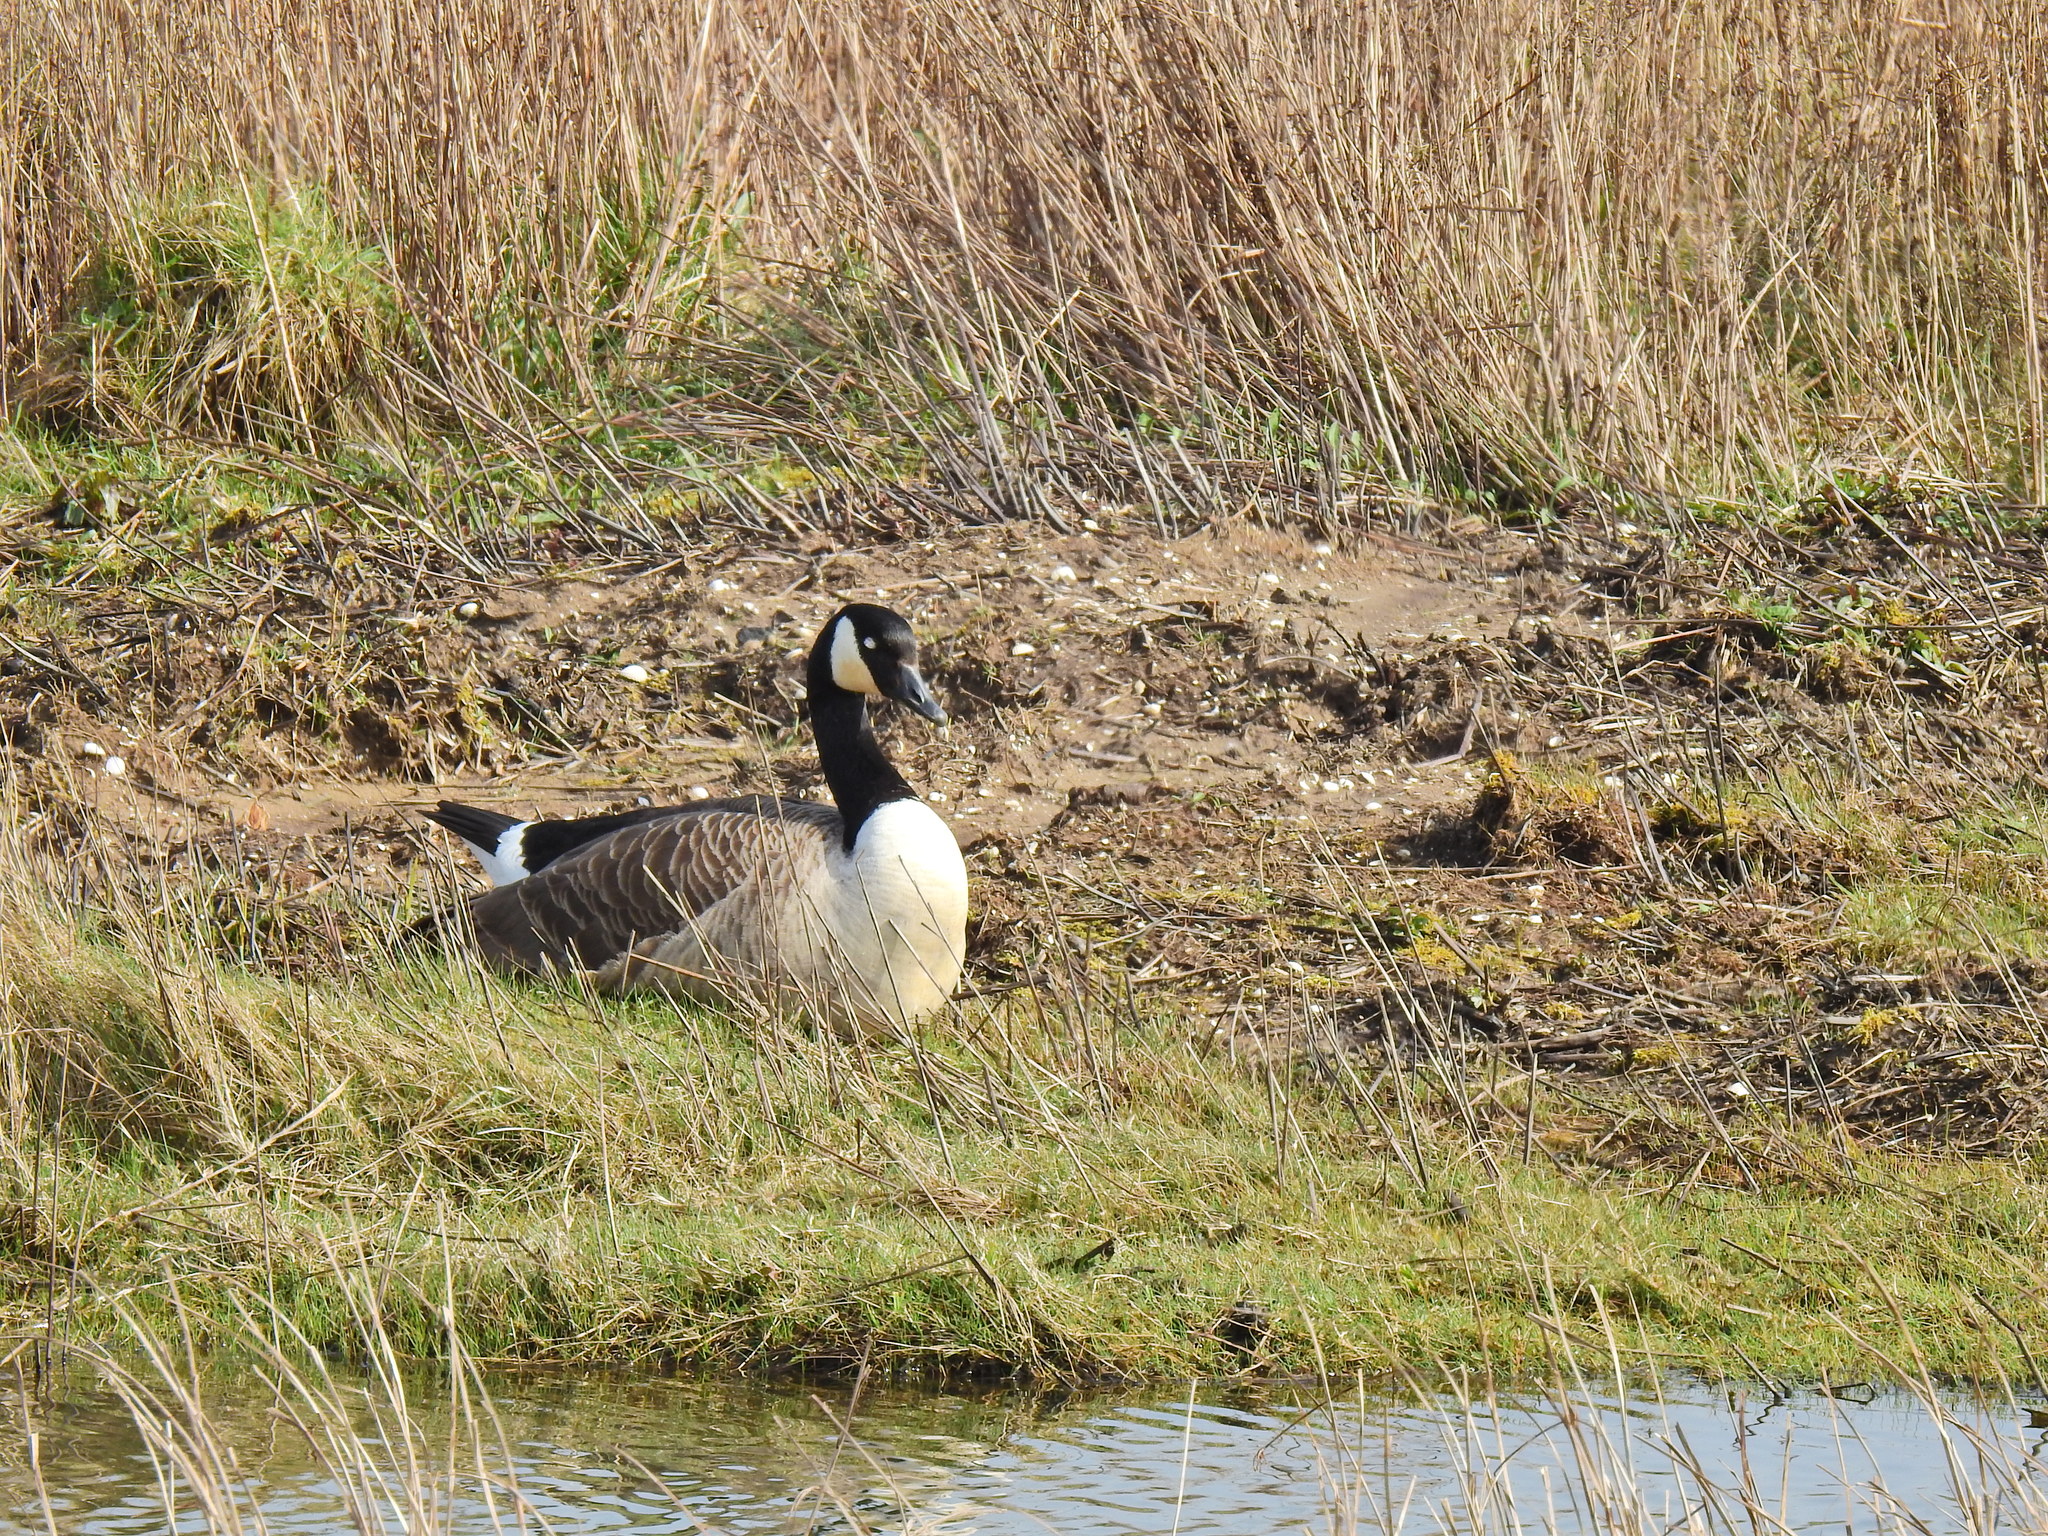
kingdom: Animalia
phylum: Chordata
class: Aves
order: Anseriformes
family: Anatidae
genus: Branta
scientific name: Branta canadensis
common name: Canada goose
